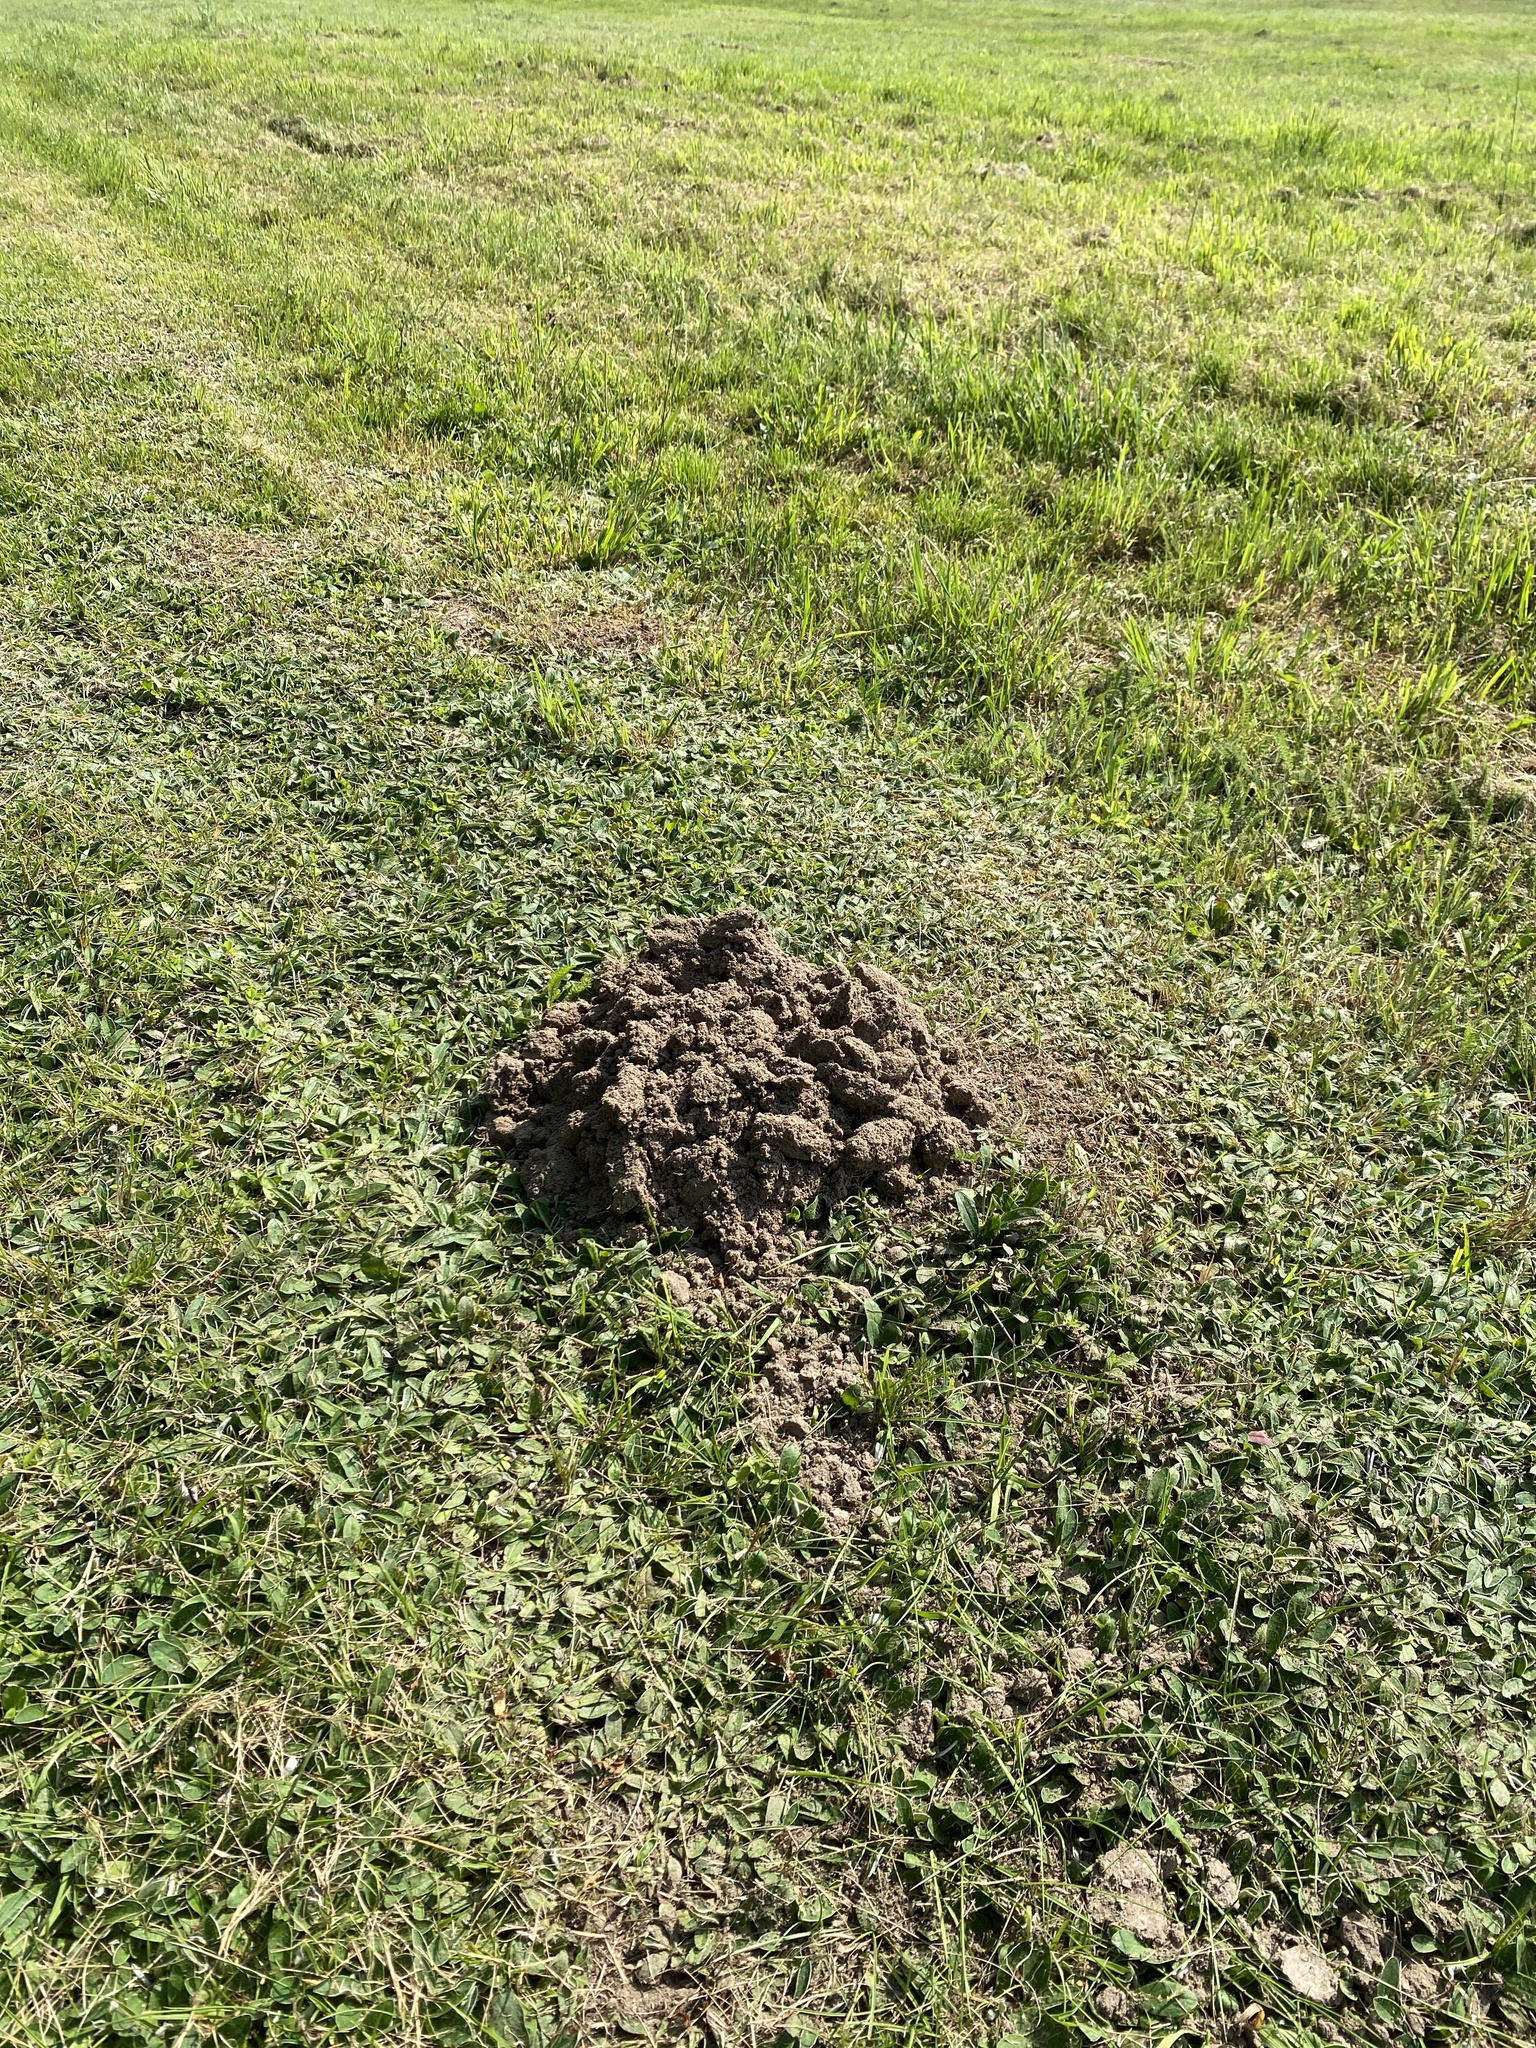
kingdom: Animalia
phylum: Chordata
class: Mammalia
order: Soricomorpha
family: Talpidae
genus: Talpa
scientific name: Talpa europaea
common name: European mole
